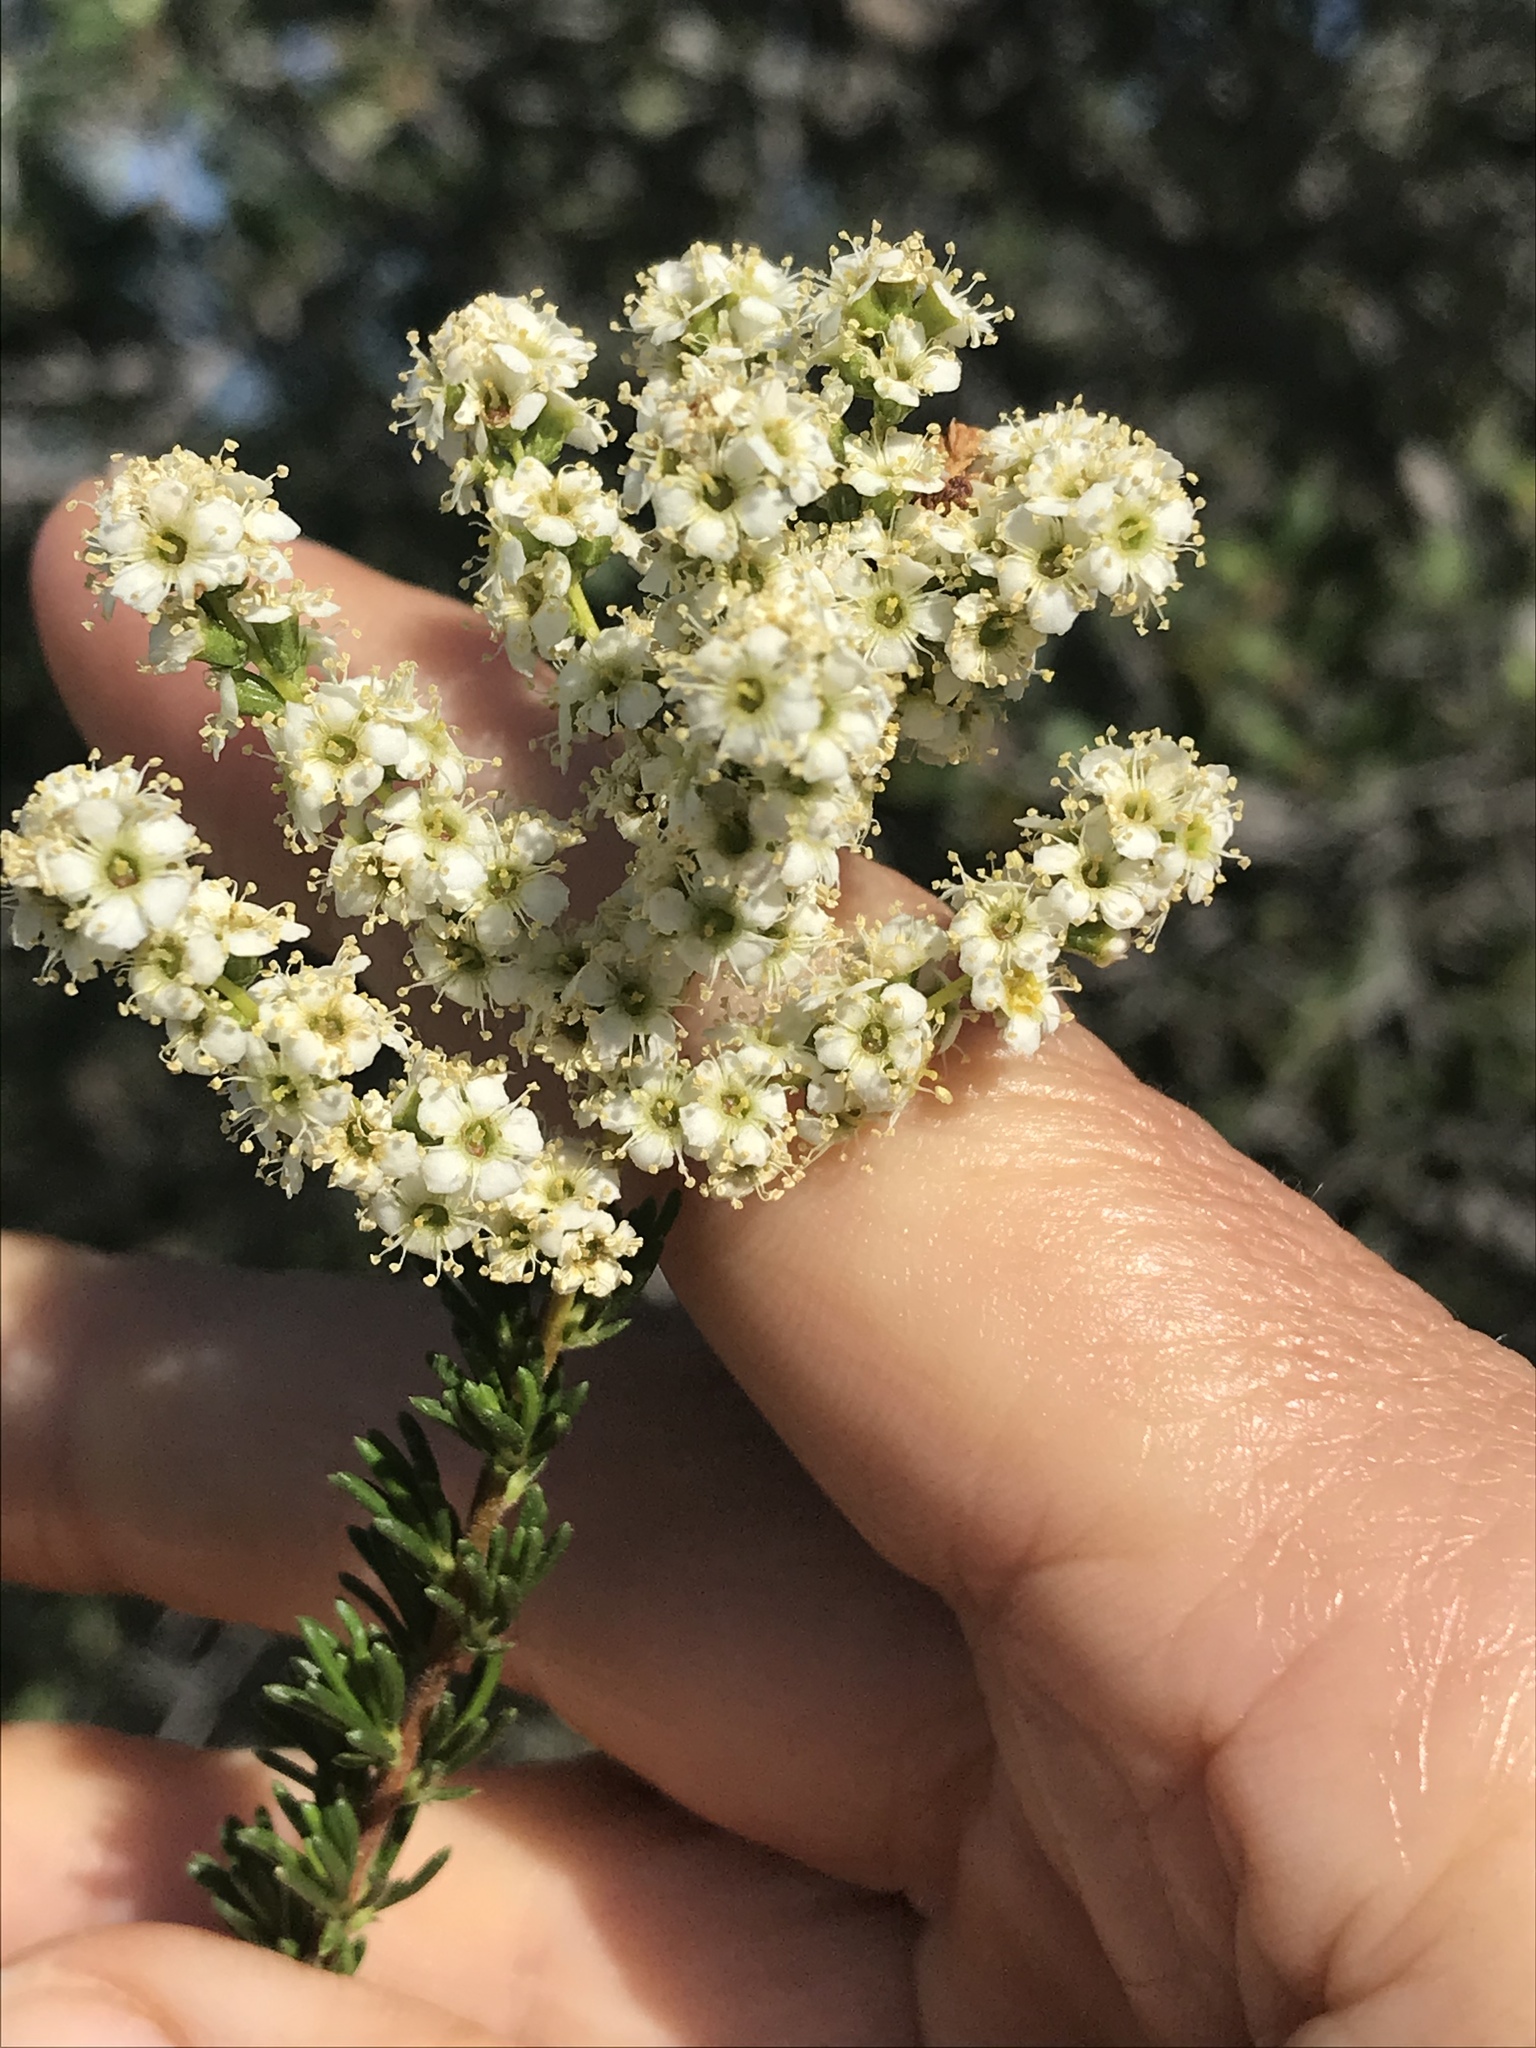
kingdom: Plantae
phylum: Tracheophyta
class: Magnoliopsida
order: Rosales
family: Rosaceae
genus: Adenostoma
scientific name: Adenostoma fasciculatum
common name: Chamise
